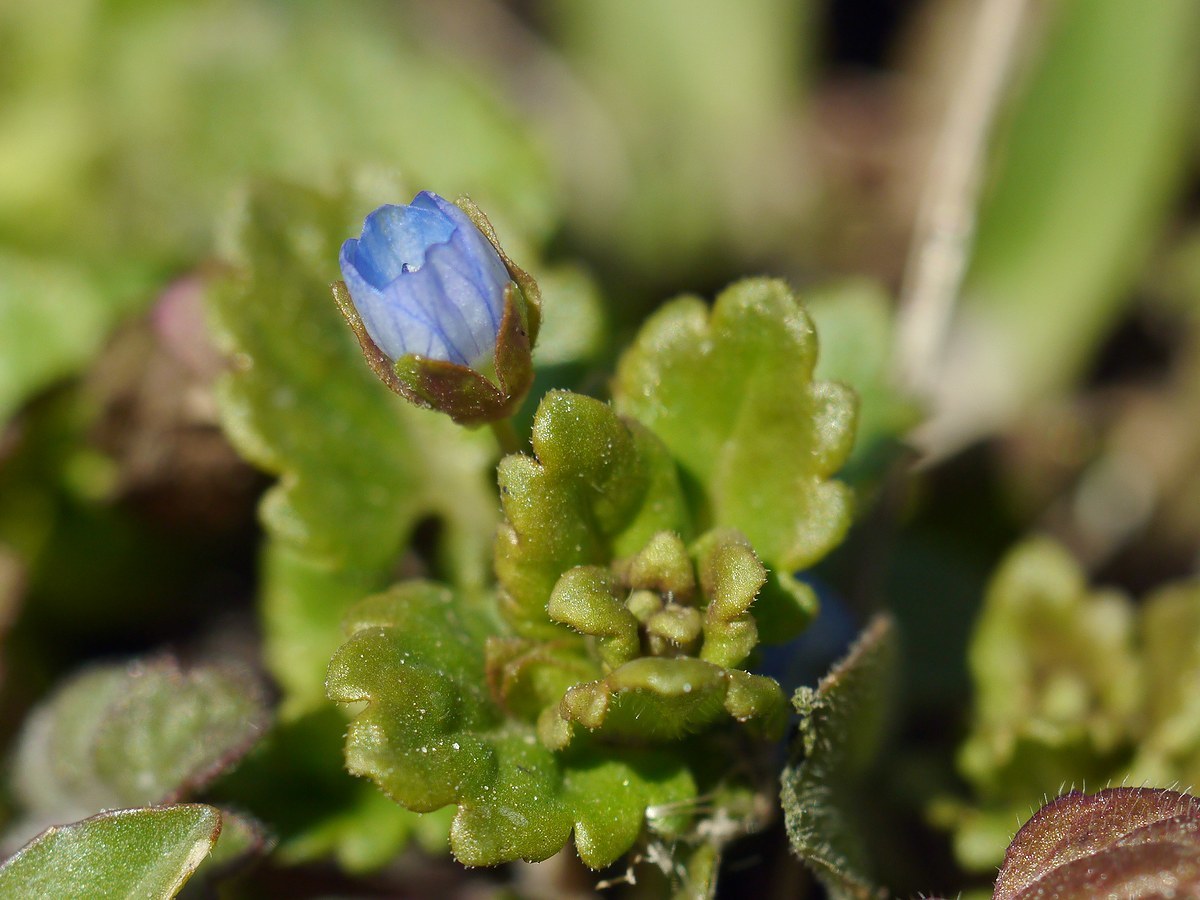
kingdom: Plantae
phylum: Tracheophyta
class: Magnoliopsida
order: Lamiales
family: Plantaginaceae
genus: Veronica
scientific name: Veronica polita
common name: Grey field-speedwell
